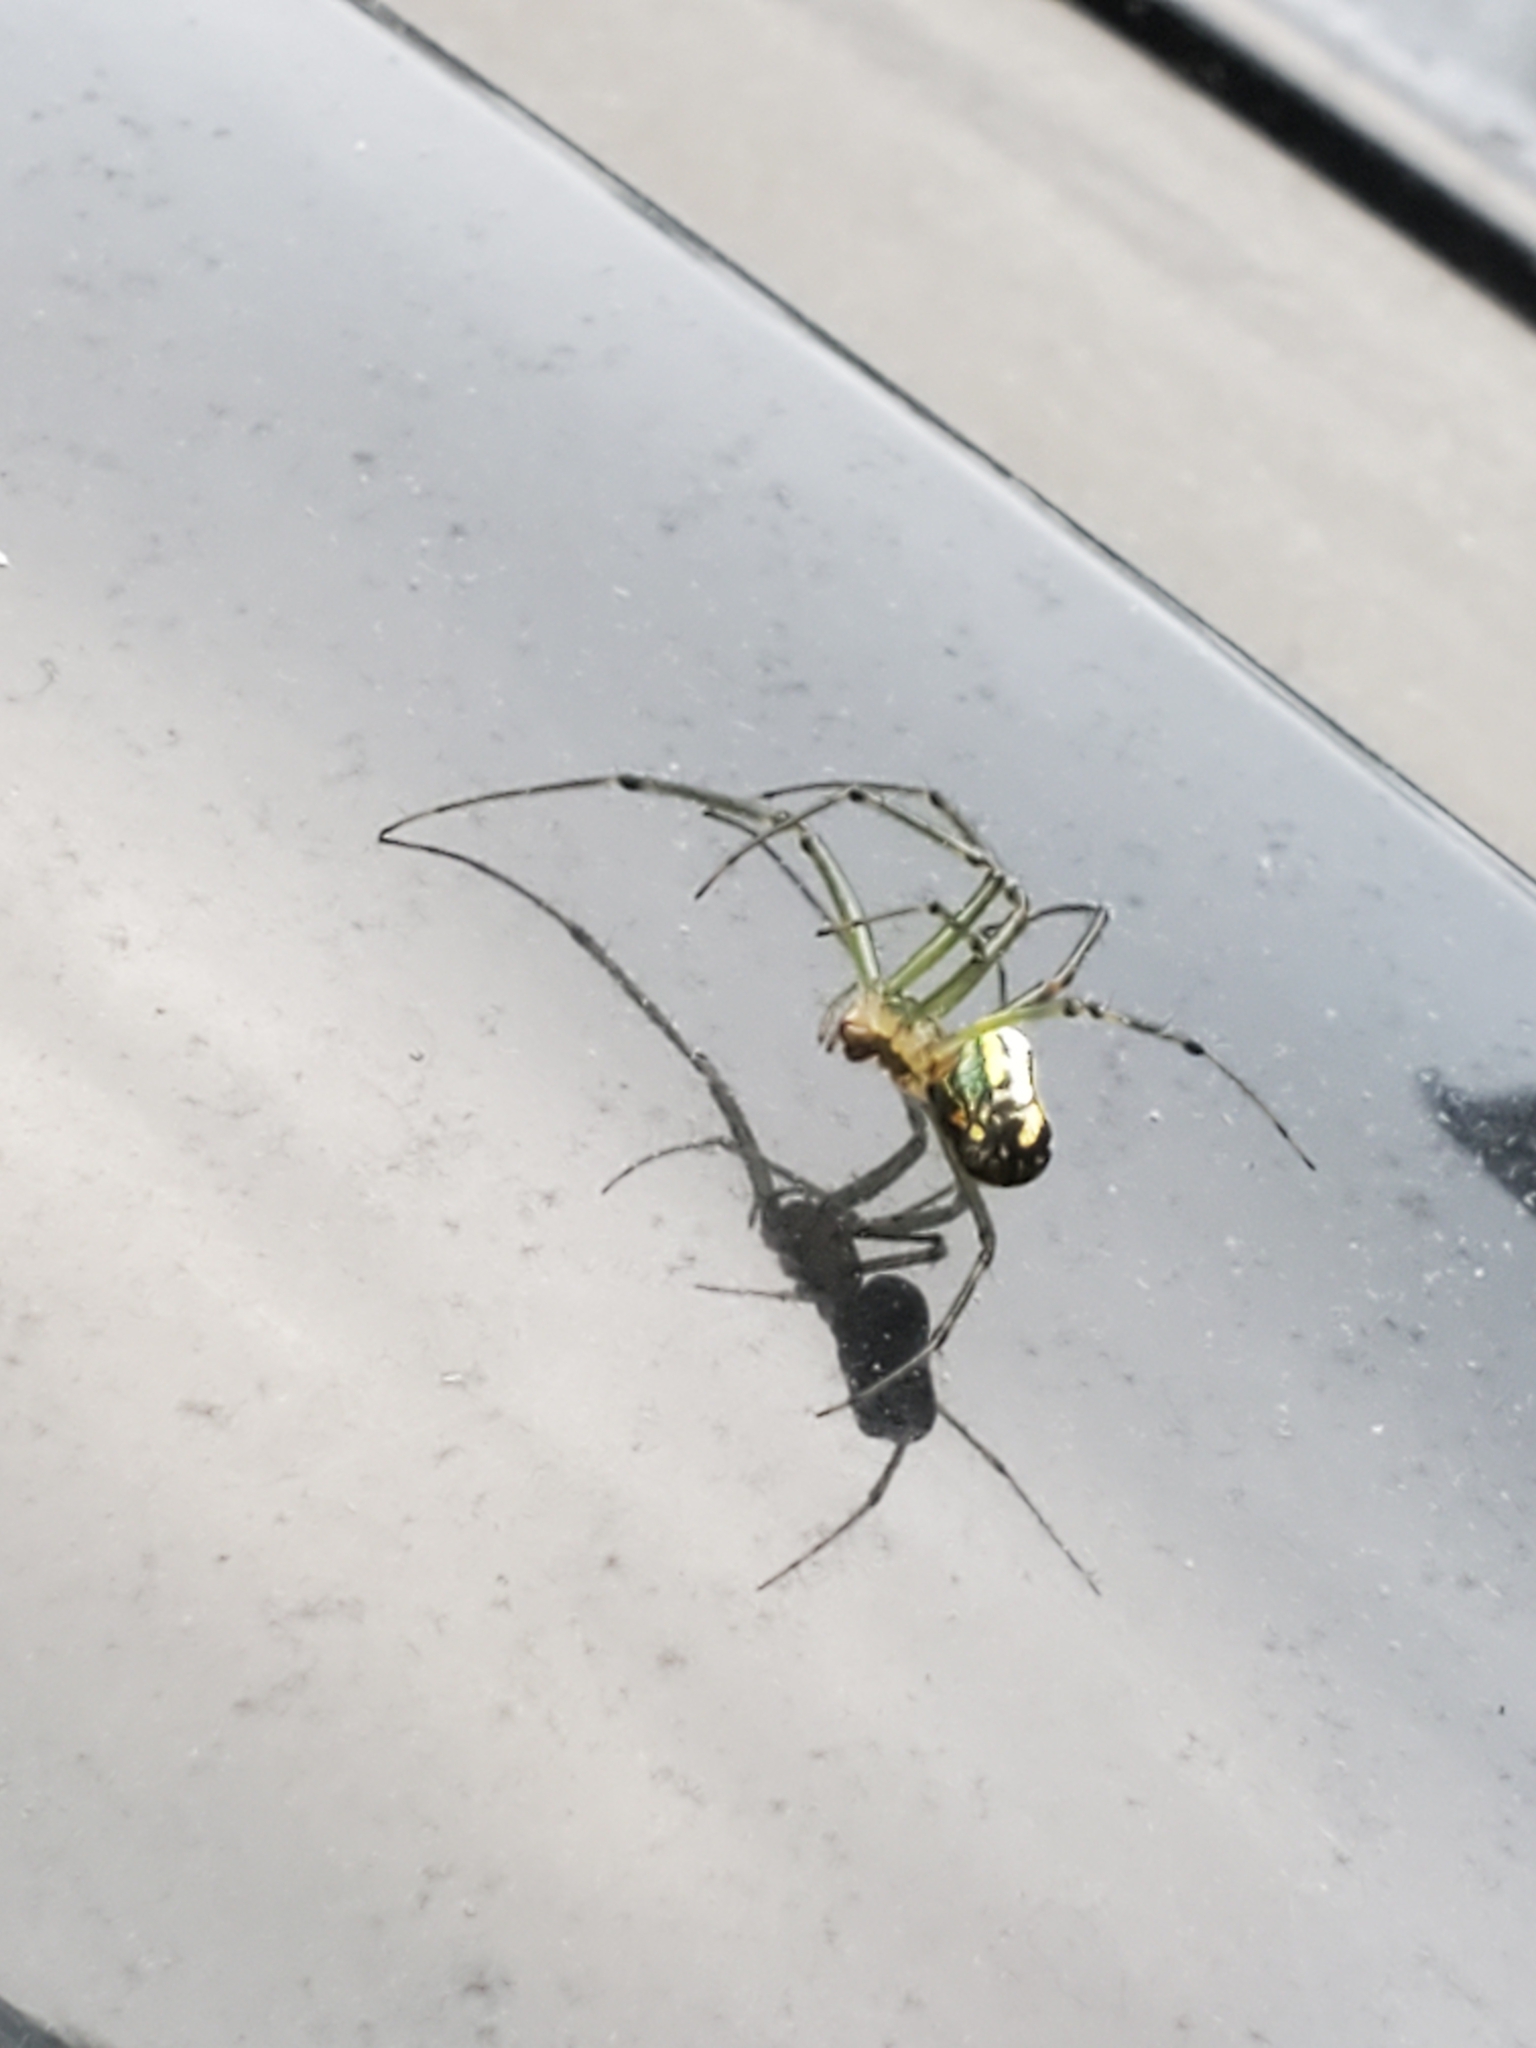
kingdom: Animalia
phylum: Arthropoda
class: Arachnida
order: Araneae
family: Tetragnathidae
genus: Leucauge
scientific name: Leucauge venusta
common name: Longjawed orb weavers
